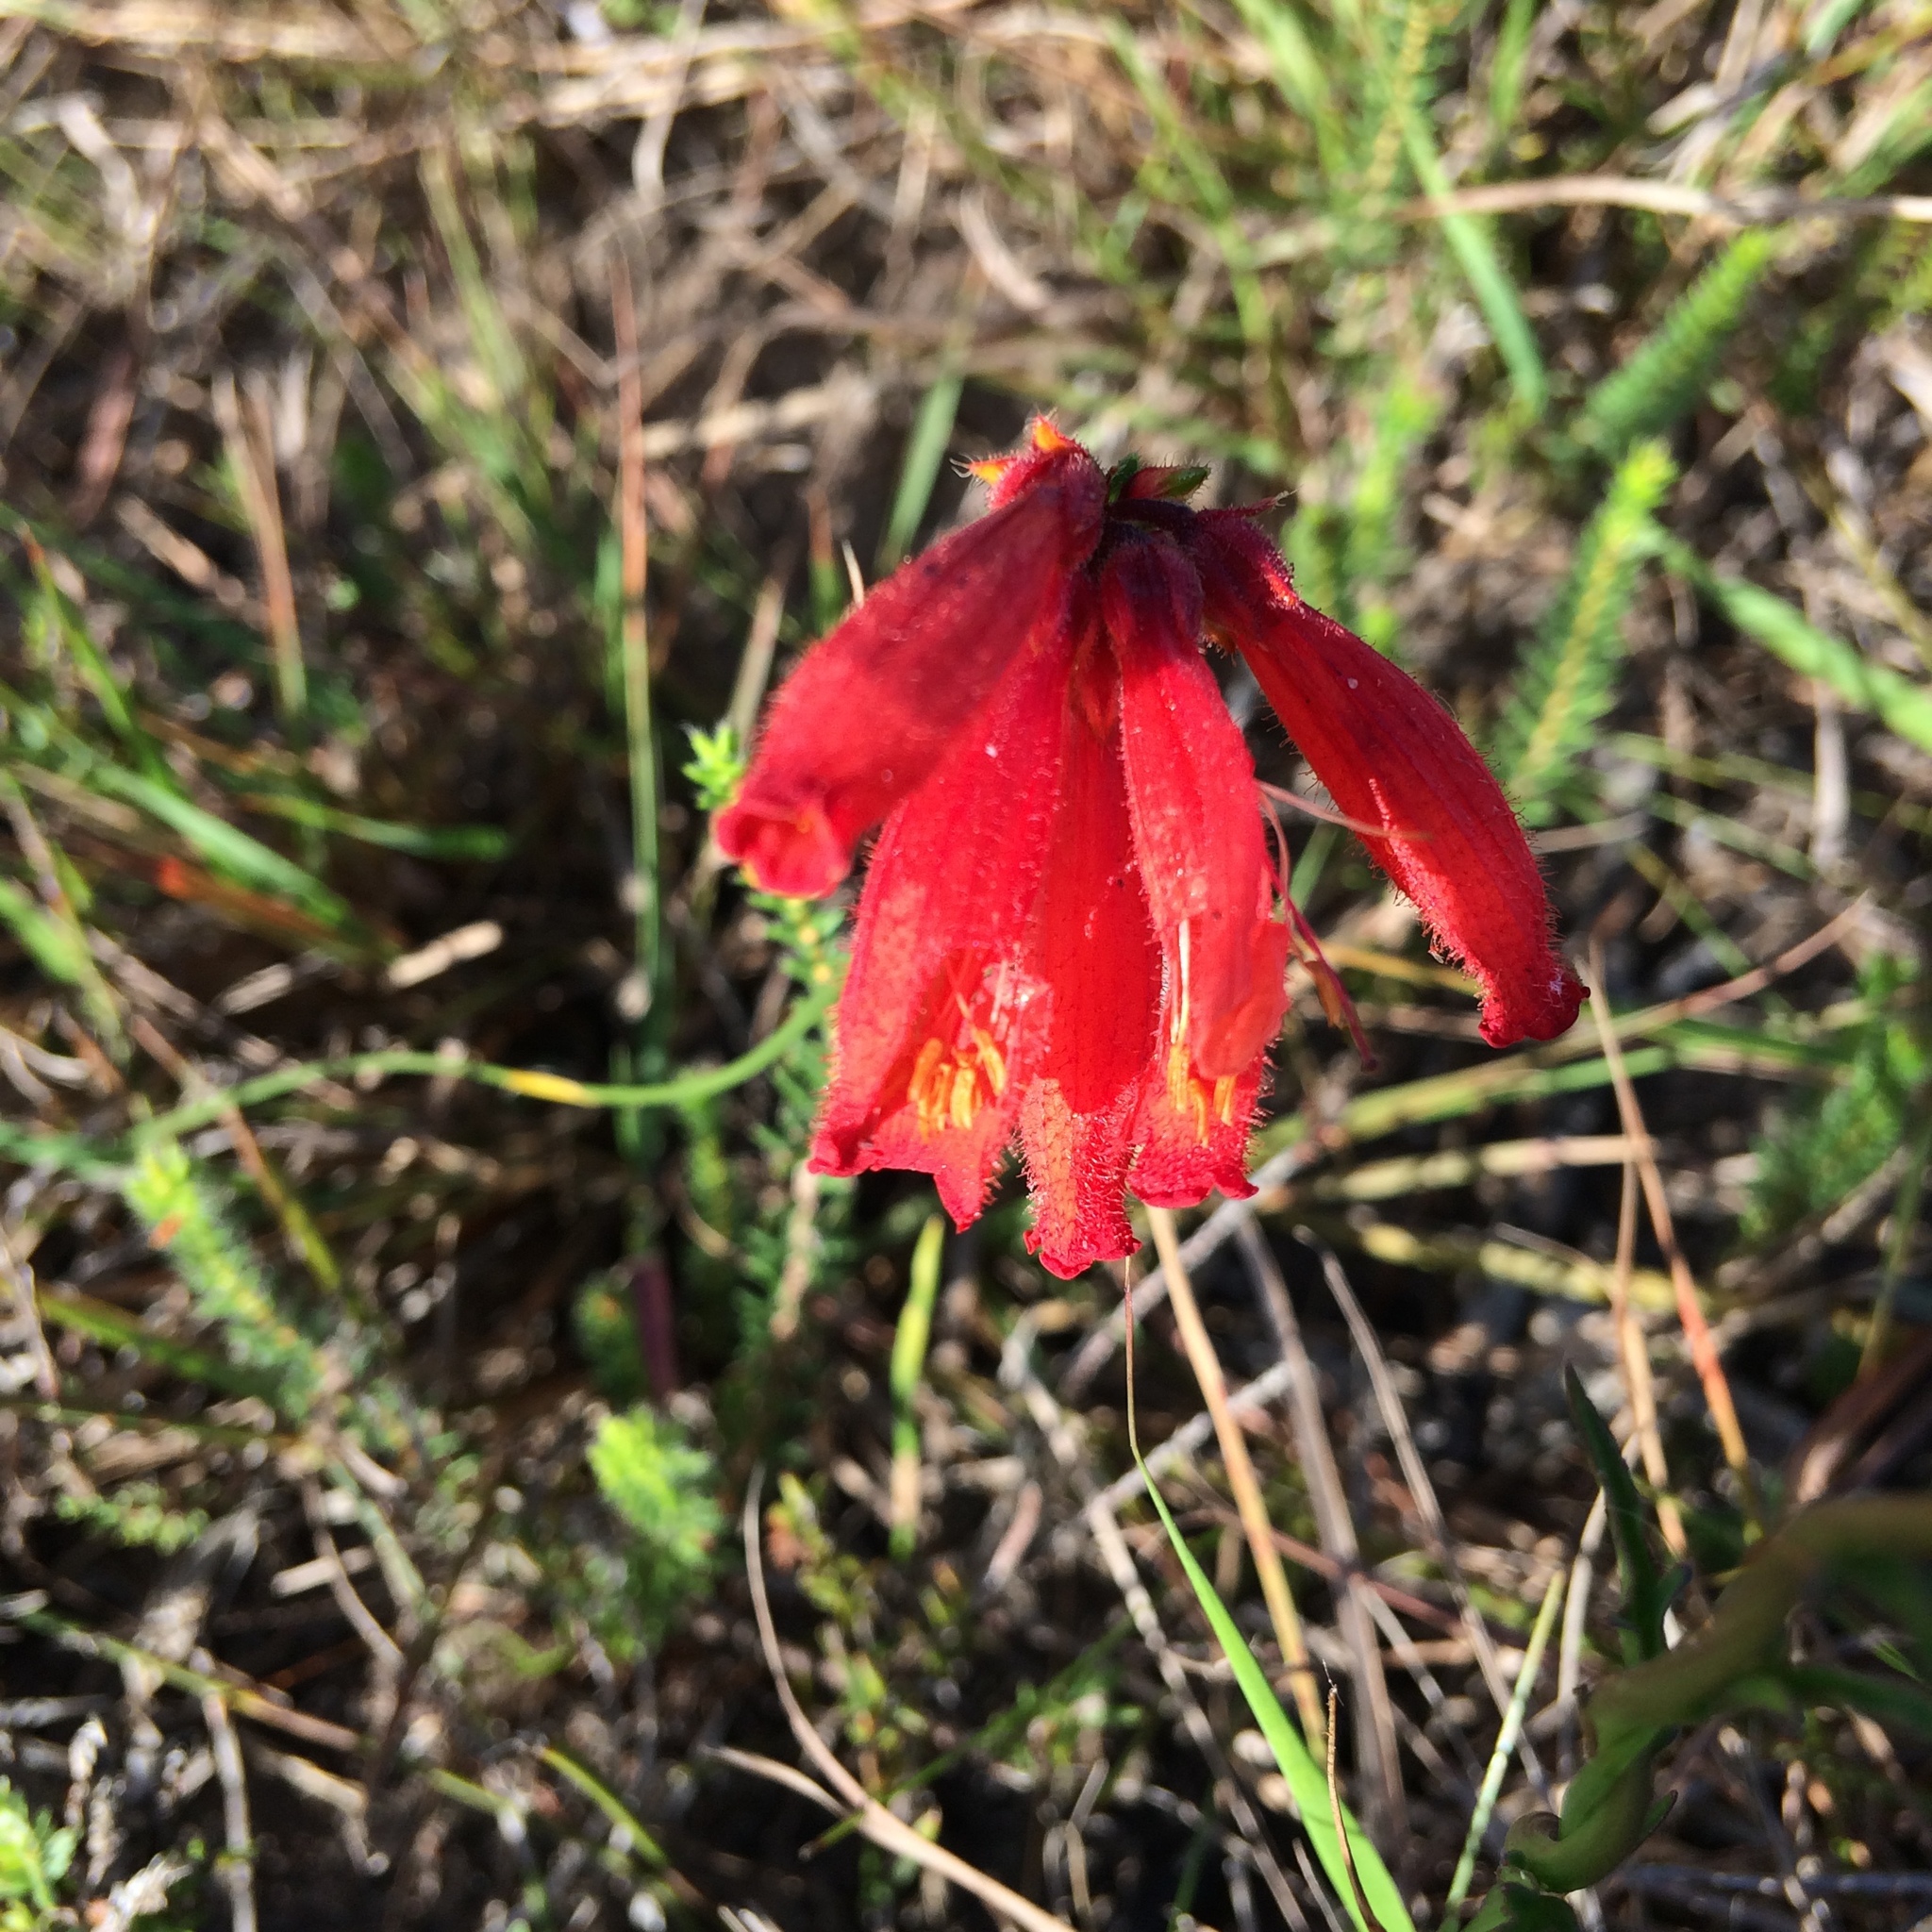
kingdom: Plantae
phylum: Tracheophyta
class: Magnoliopsida
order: Ericales
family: Ericaceae
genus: Erica
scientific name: Erica cerinthoides
